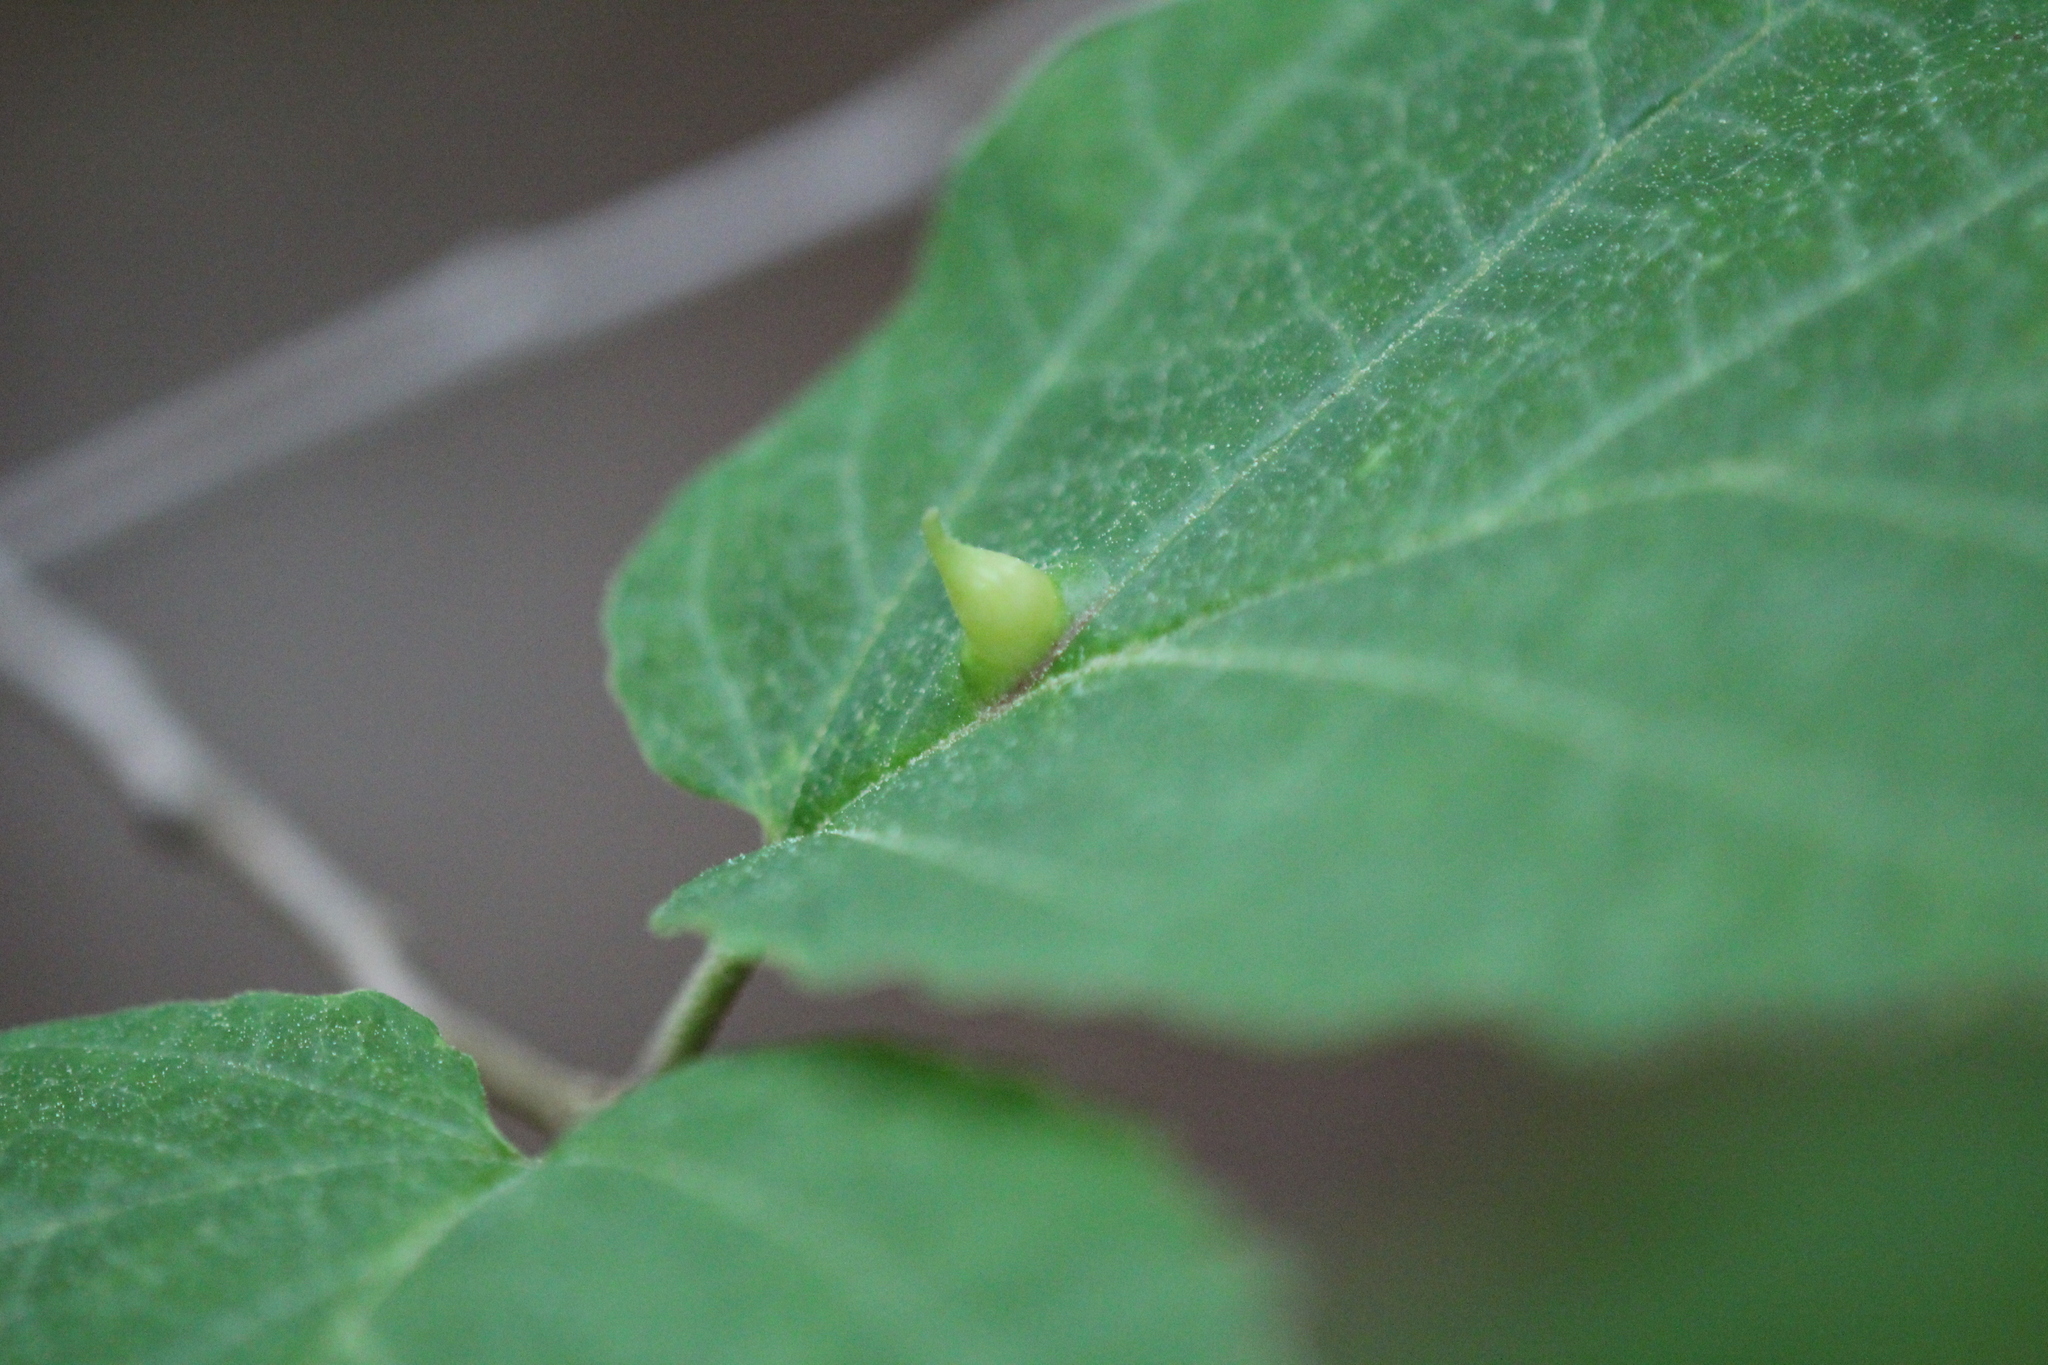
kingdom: Animalia
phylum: Arthropoda
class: Insecta
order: Hemiptera
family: Aphididae
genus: Hormaphis
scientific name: Hormaphis hamamelidis
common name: Witch-hazel cone gall aphid
